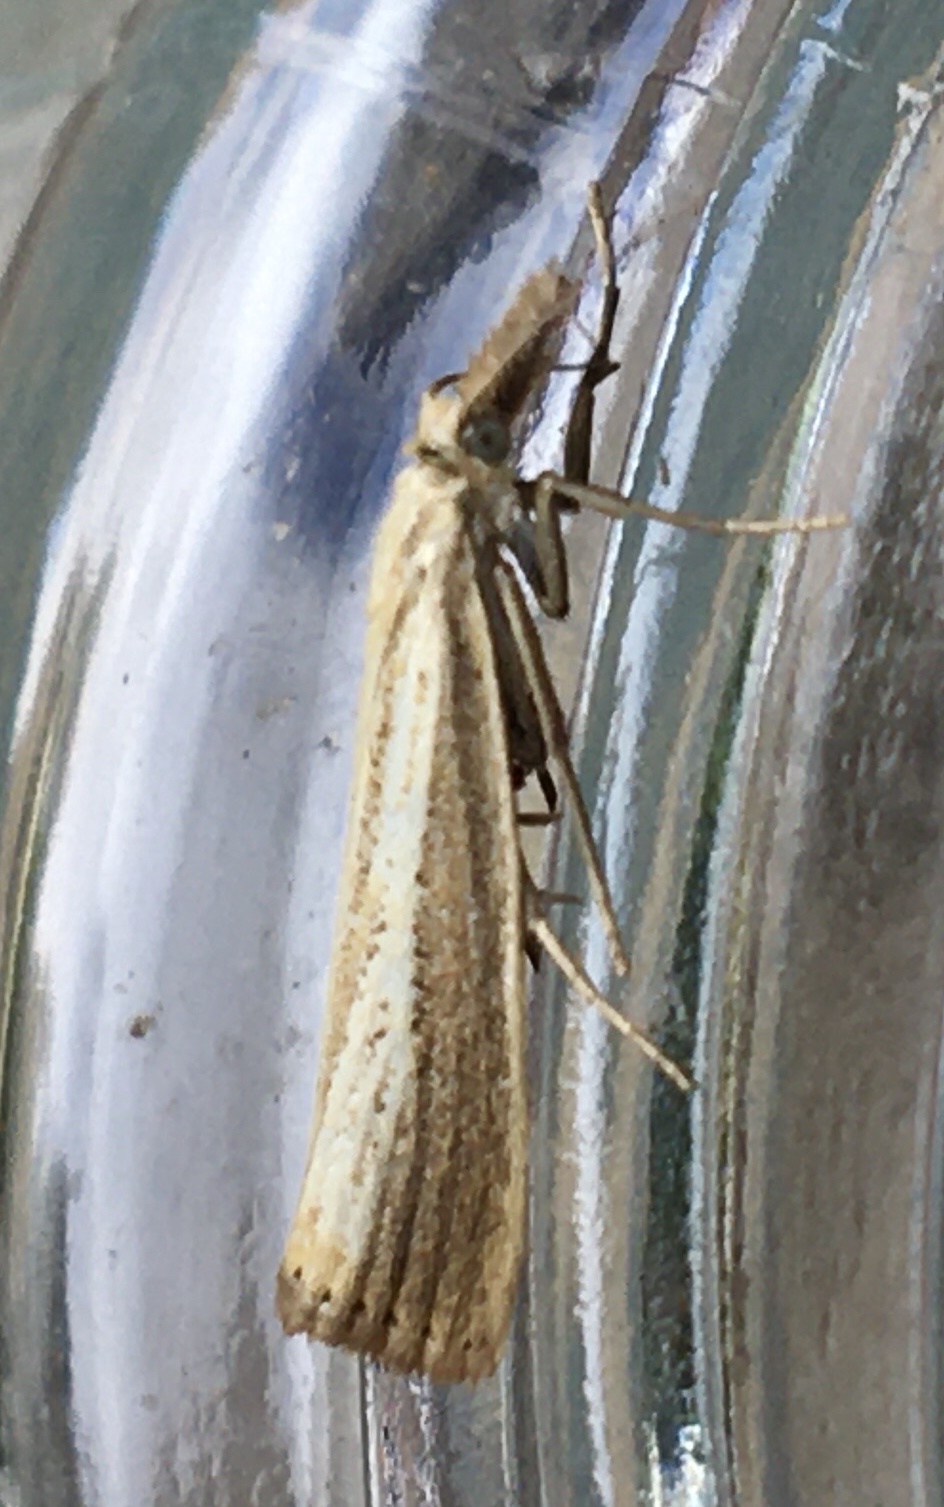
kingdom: Animalia
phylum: Arthropoda
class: Insecta
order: Lepidoptera
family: Crambidae
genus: Agriphila
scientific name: Agriphila straminella
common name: Straw grass-veneer
